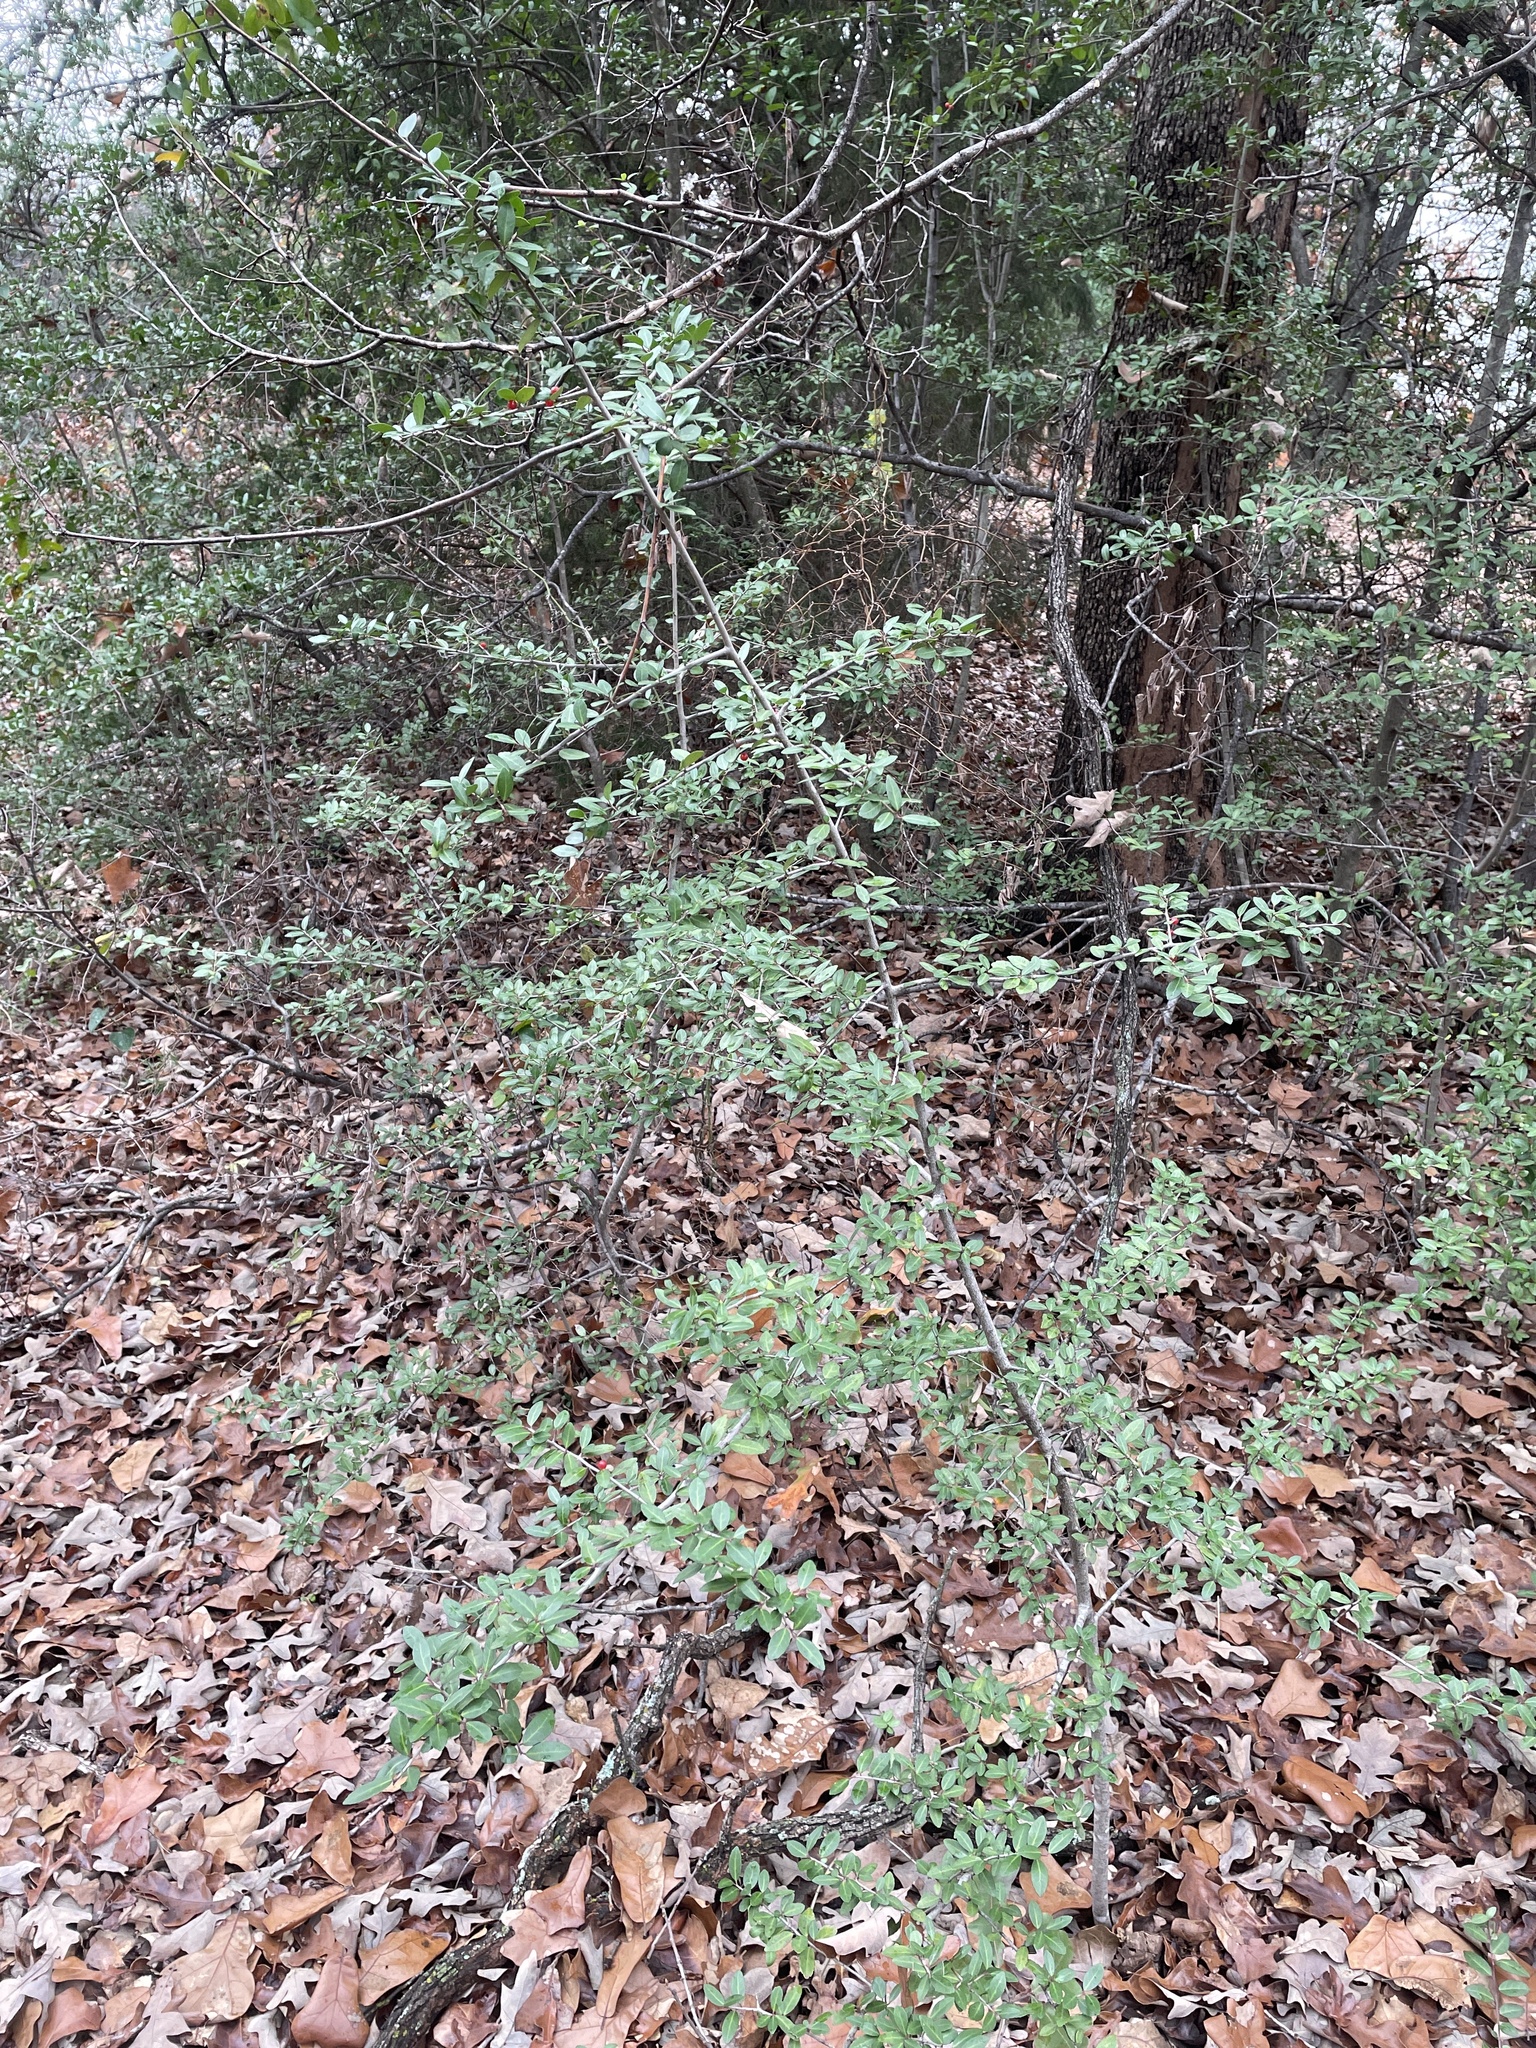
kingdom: Plantae
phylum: Tracheophyta
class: Magnoliopsida
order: Aquifoliales
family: Aquifoliaceae
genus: Ilex
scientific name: Ilex vomitoria
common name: Yaupon holly
